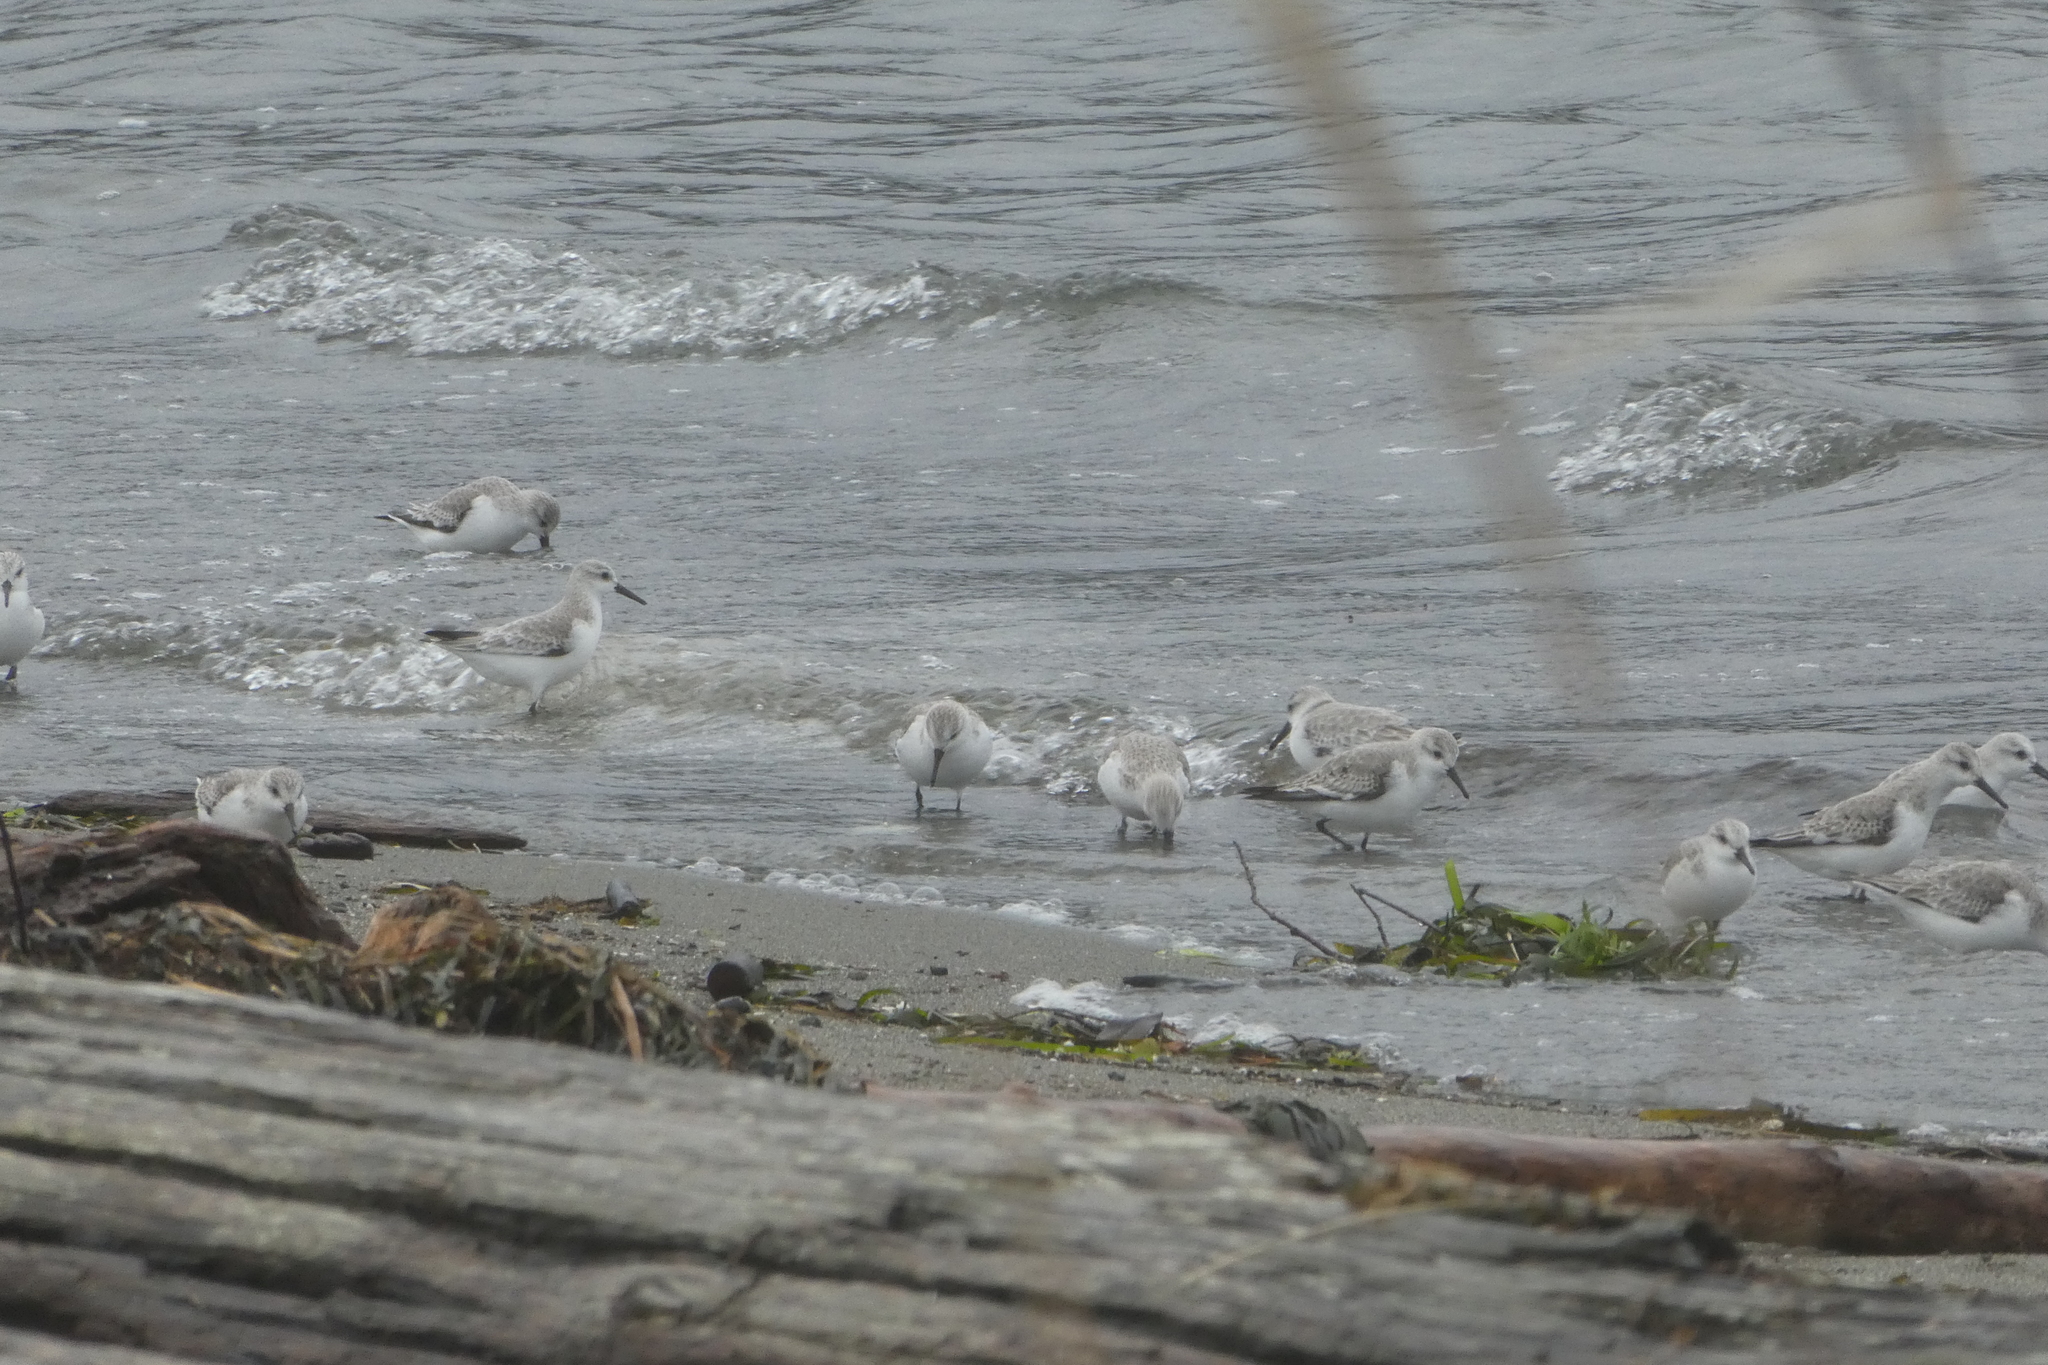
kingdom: Animalia
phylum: Chordata
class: Aves
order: Charadriiformes
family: Scolopacidae
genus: Calidris
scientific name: Calidris alba
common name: Sanderling
